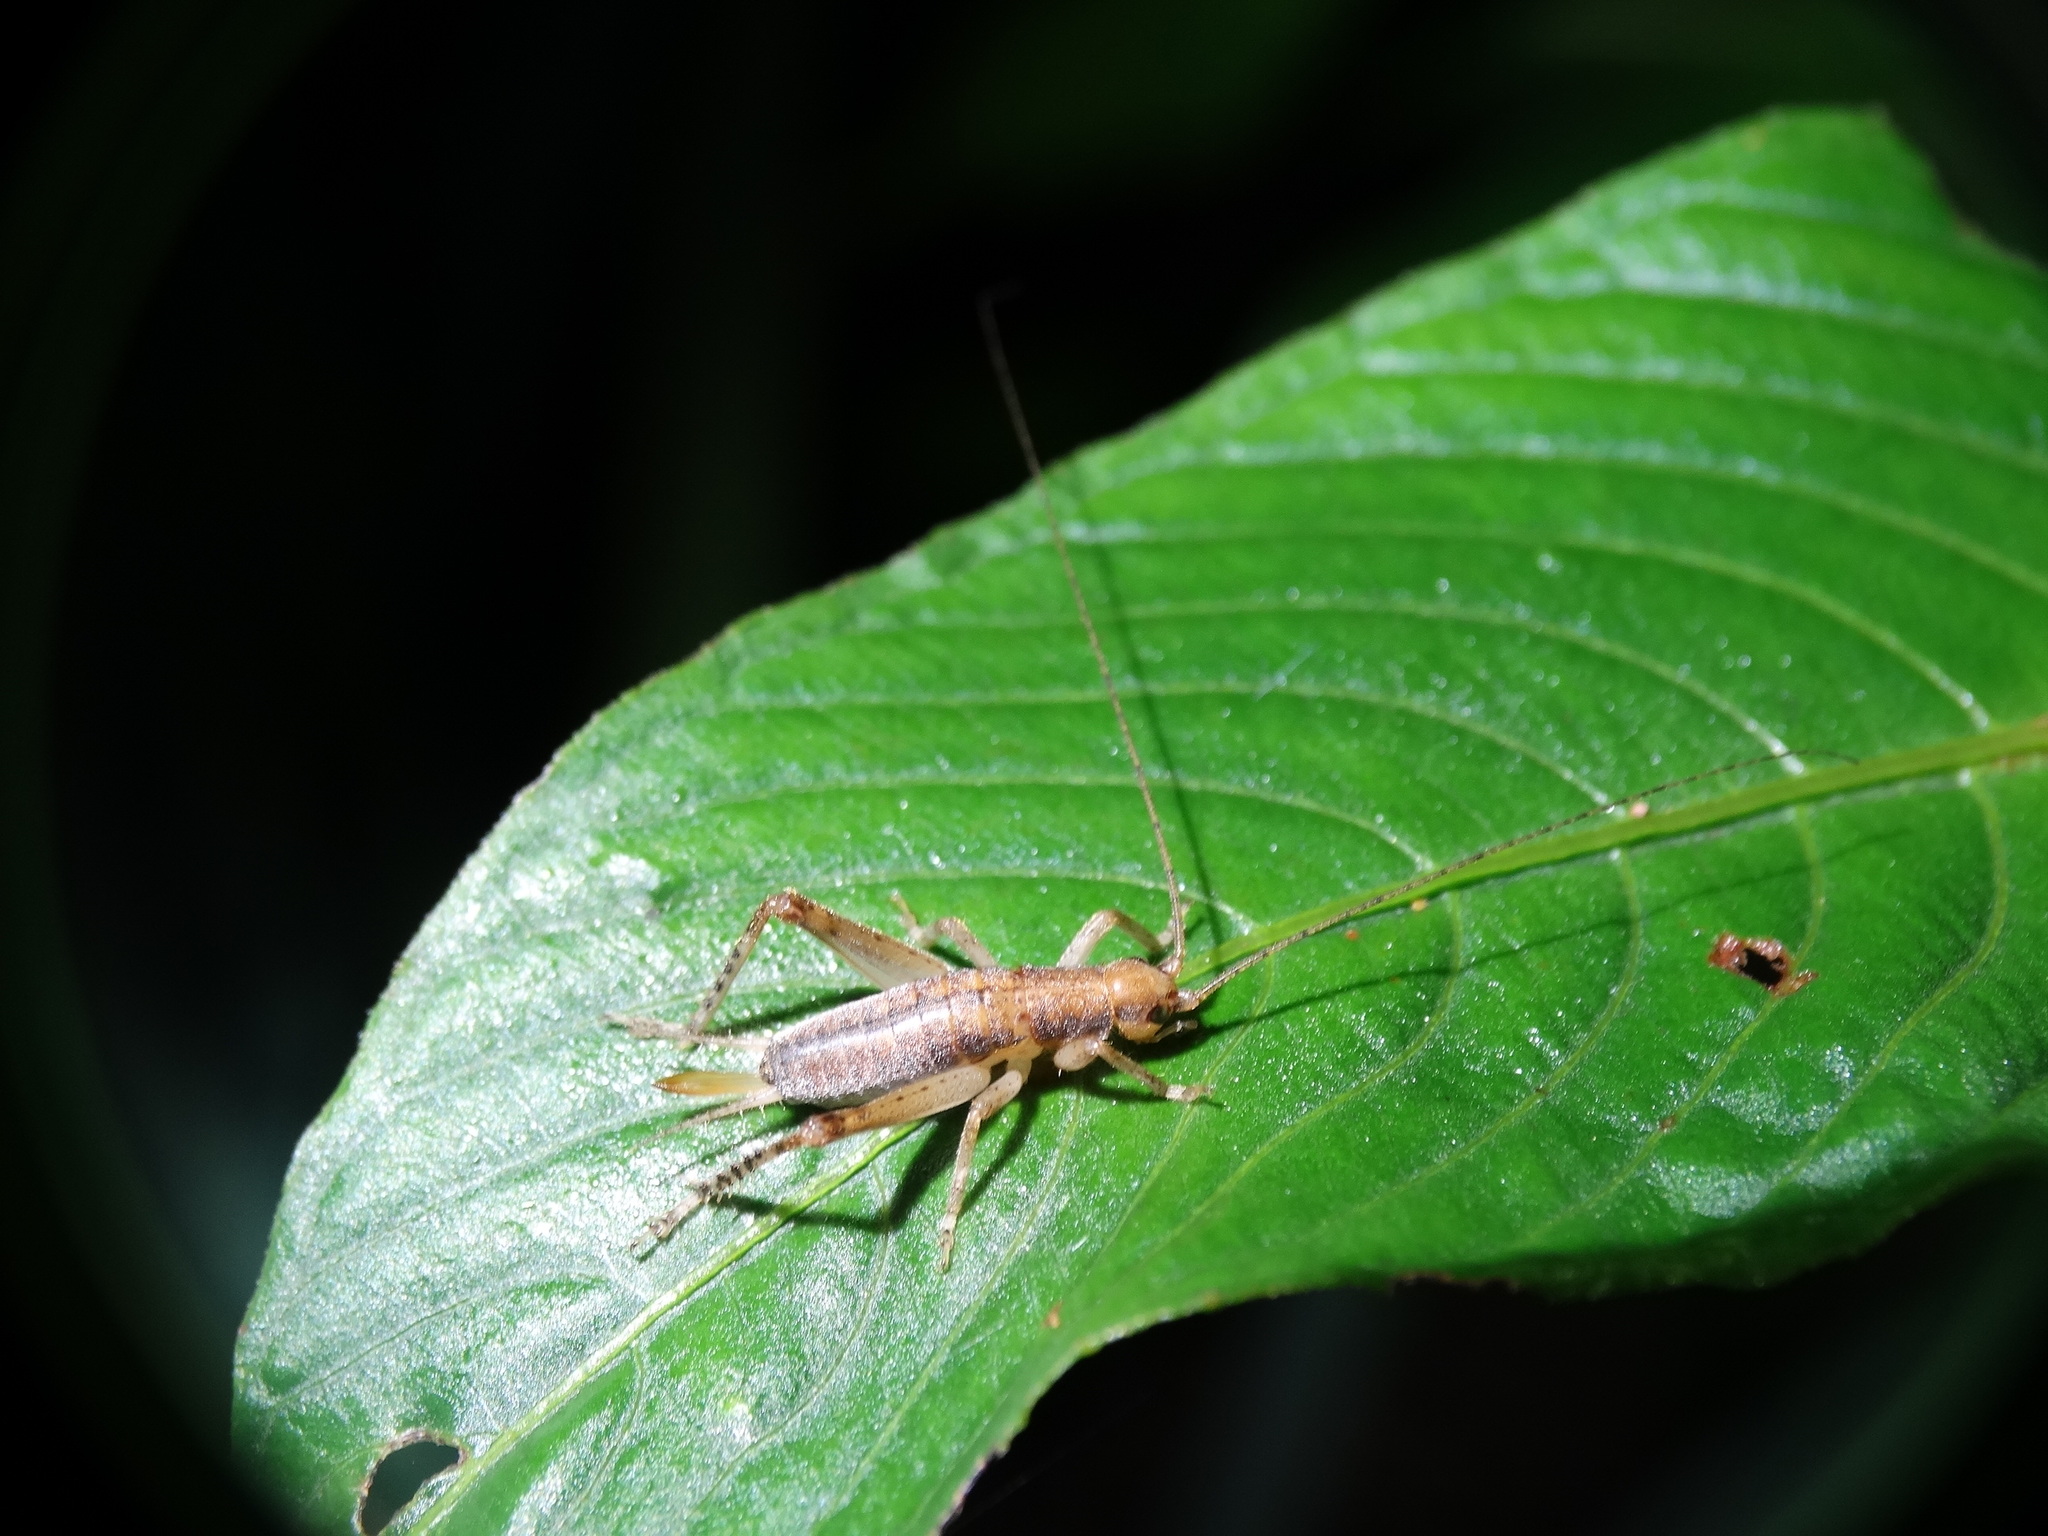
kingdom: Animalia
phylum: Arthropoda
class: Insecta
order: Orthoptera
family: Gryllidae
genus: Neometrypus
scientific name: Neometrypus aculeatus
